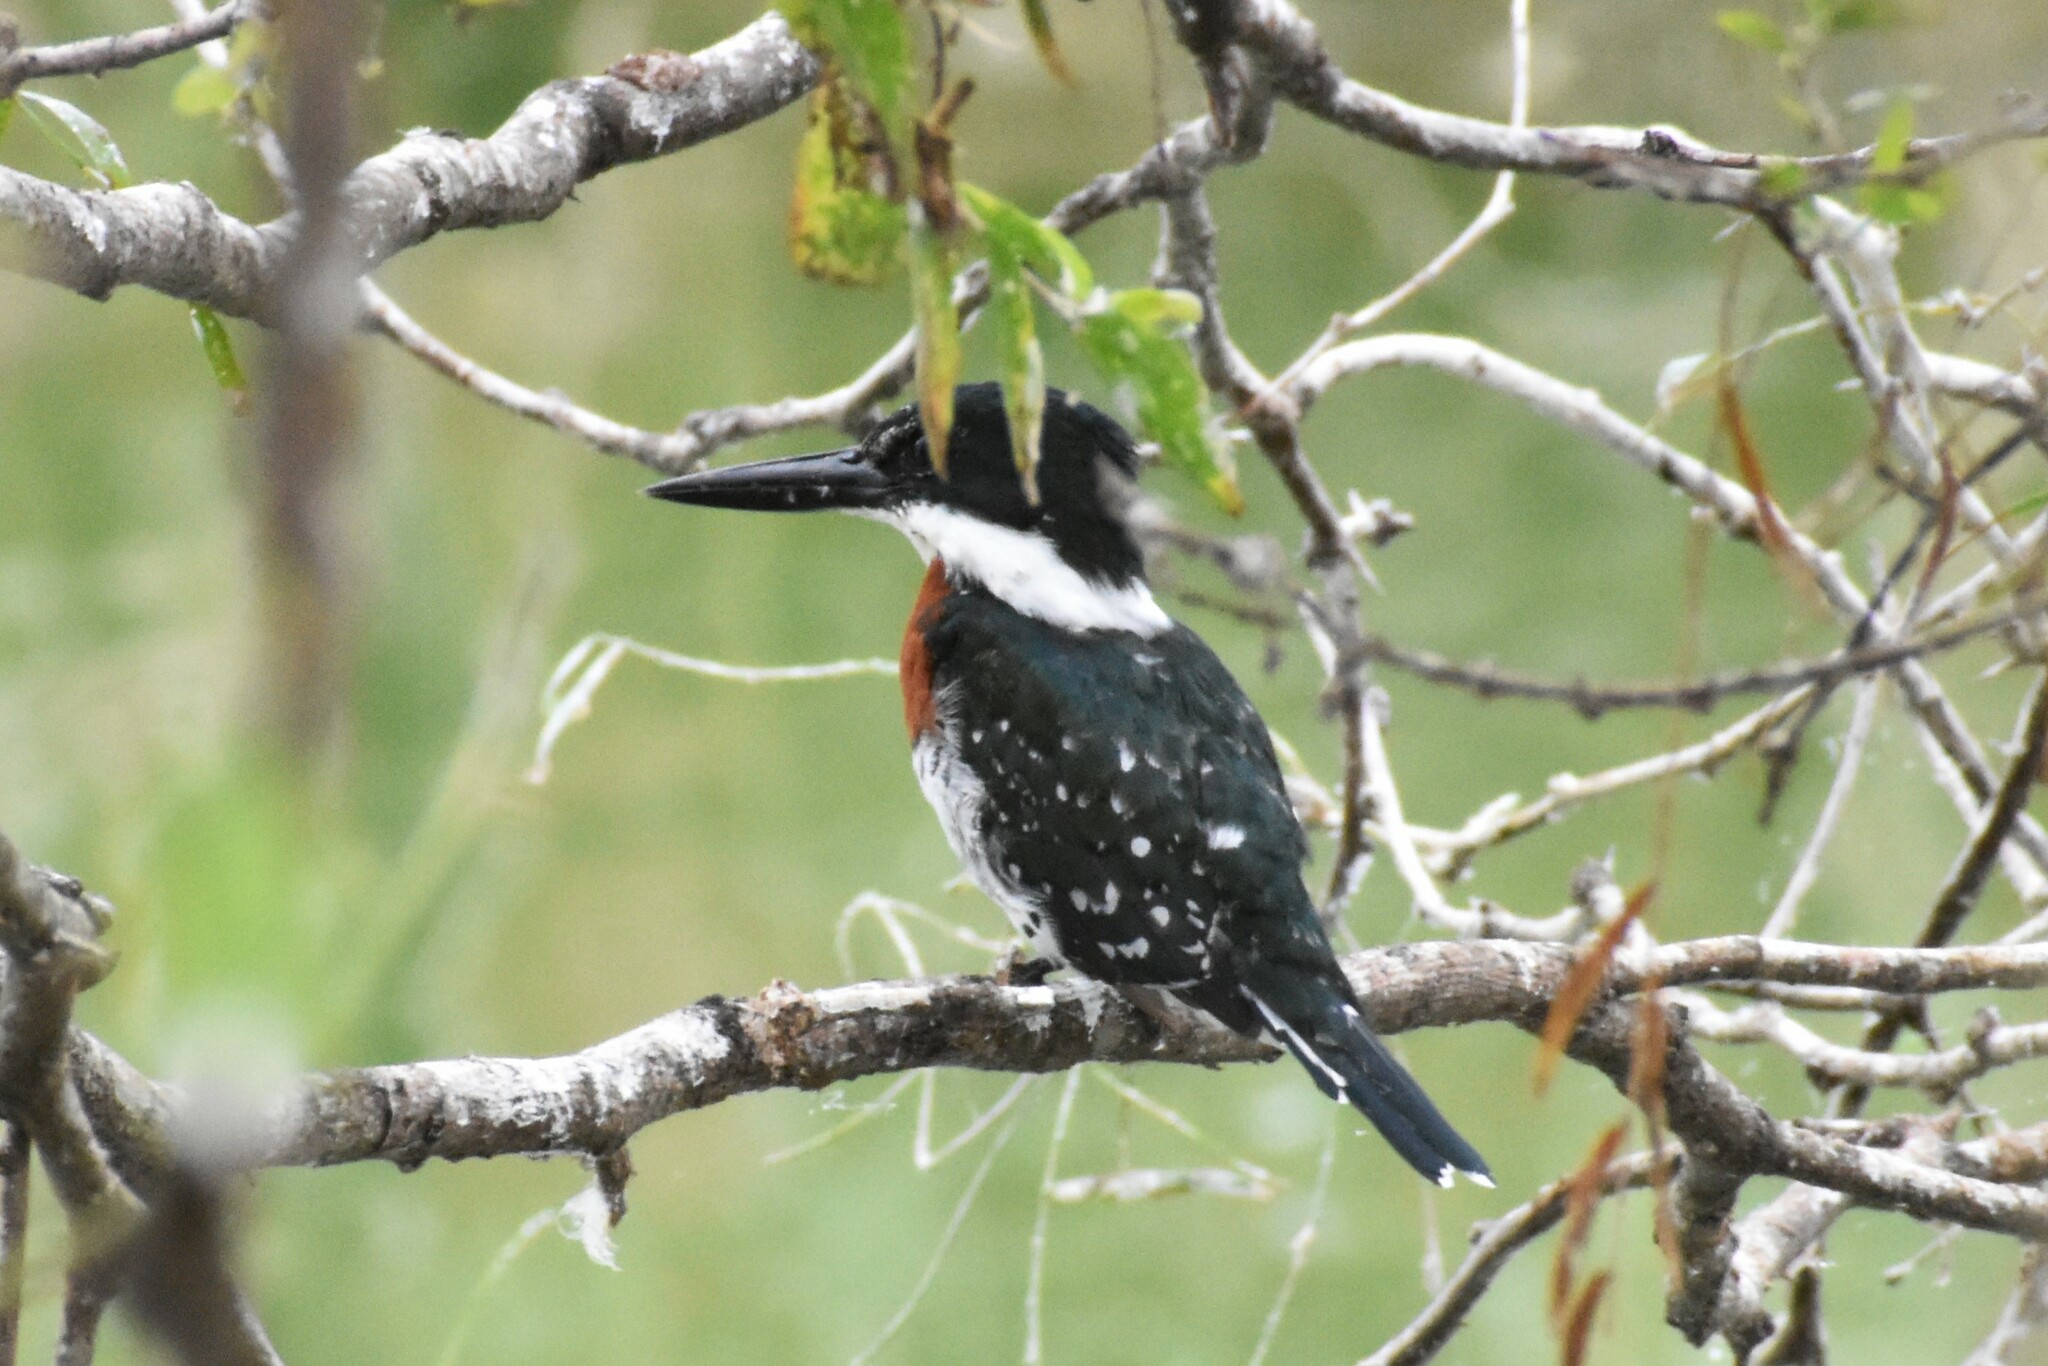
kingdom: Animalia
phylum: Chordata
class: Aves
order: Coraciiformes
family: Alcedinidae
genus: Chloroceryle
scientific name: Chloroceryle americana
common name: Green kingfisher
